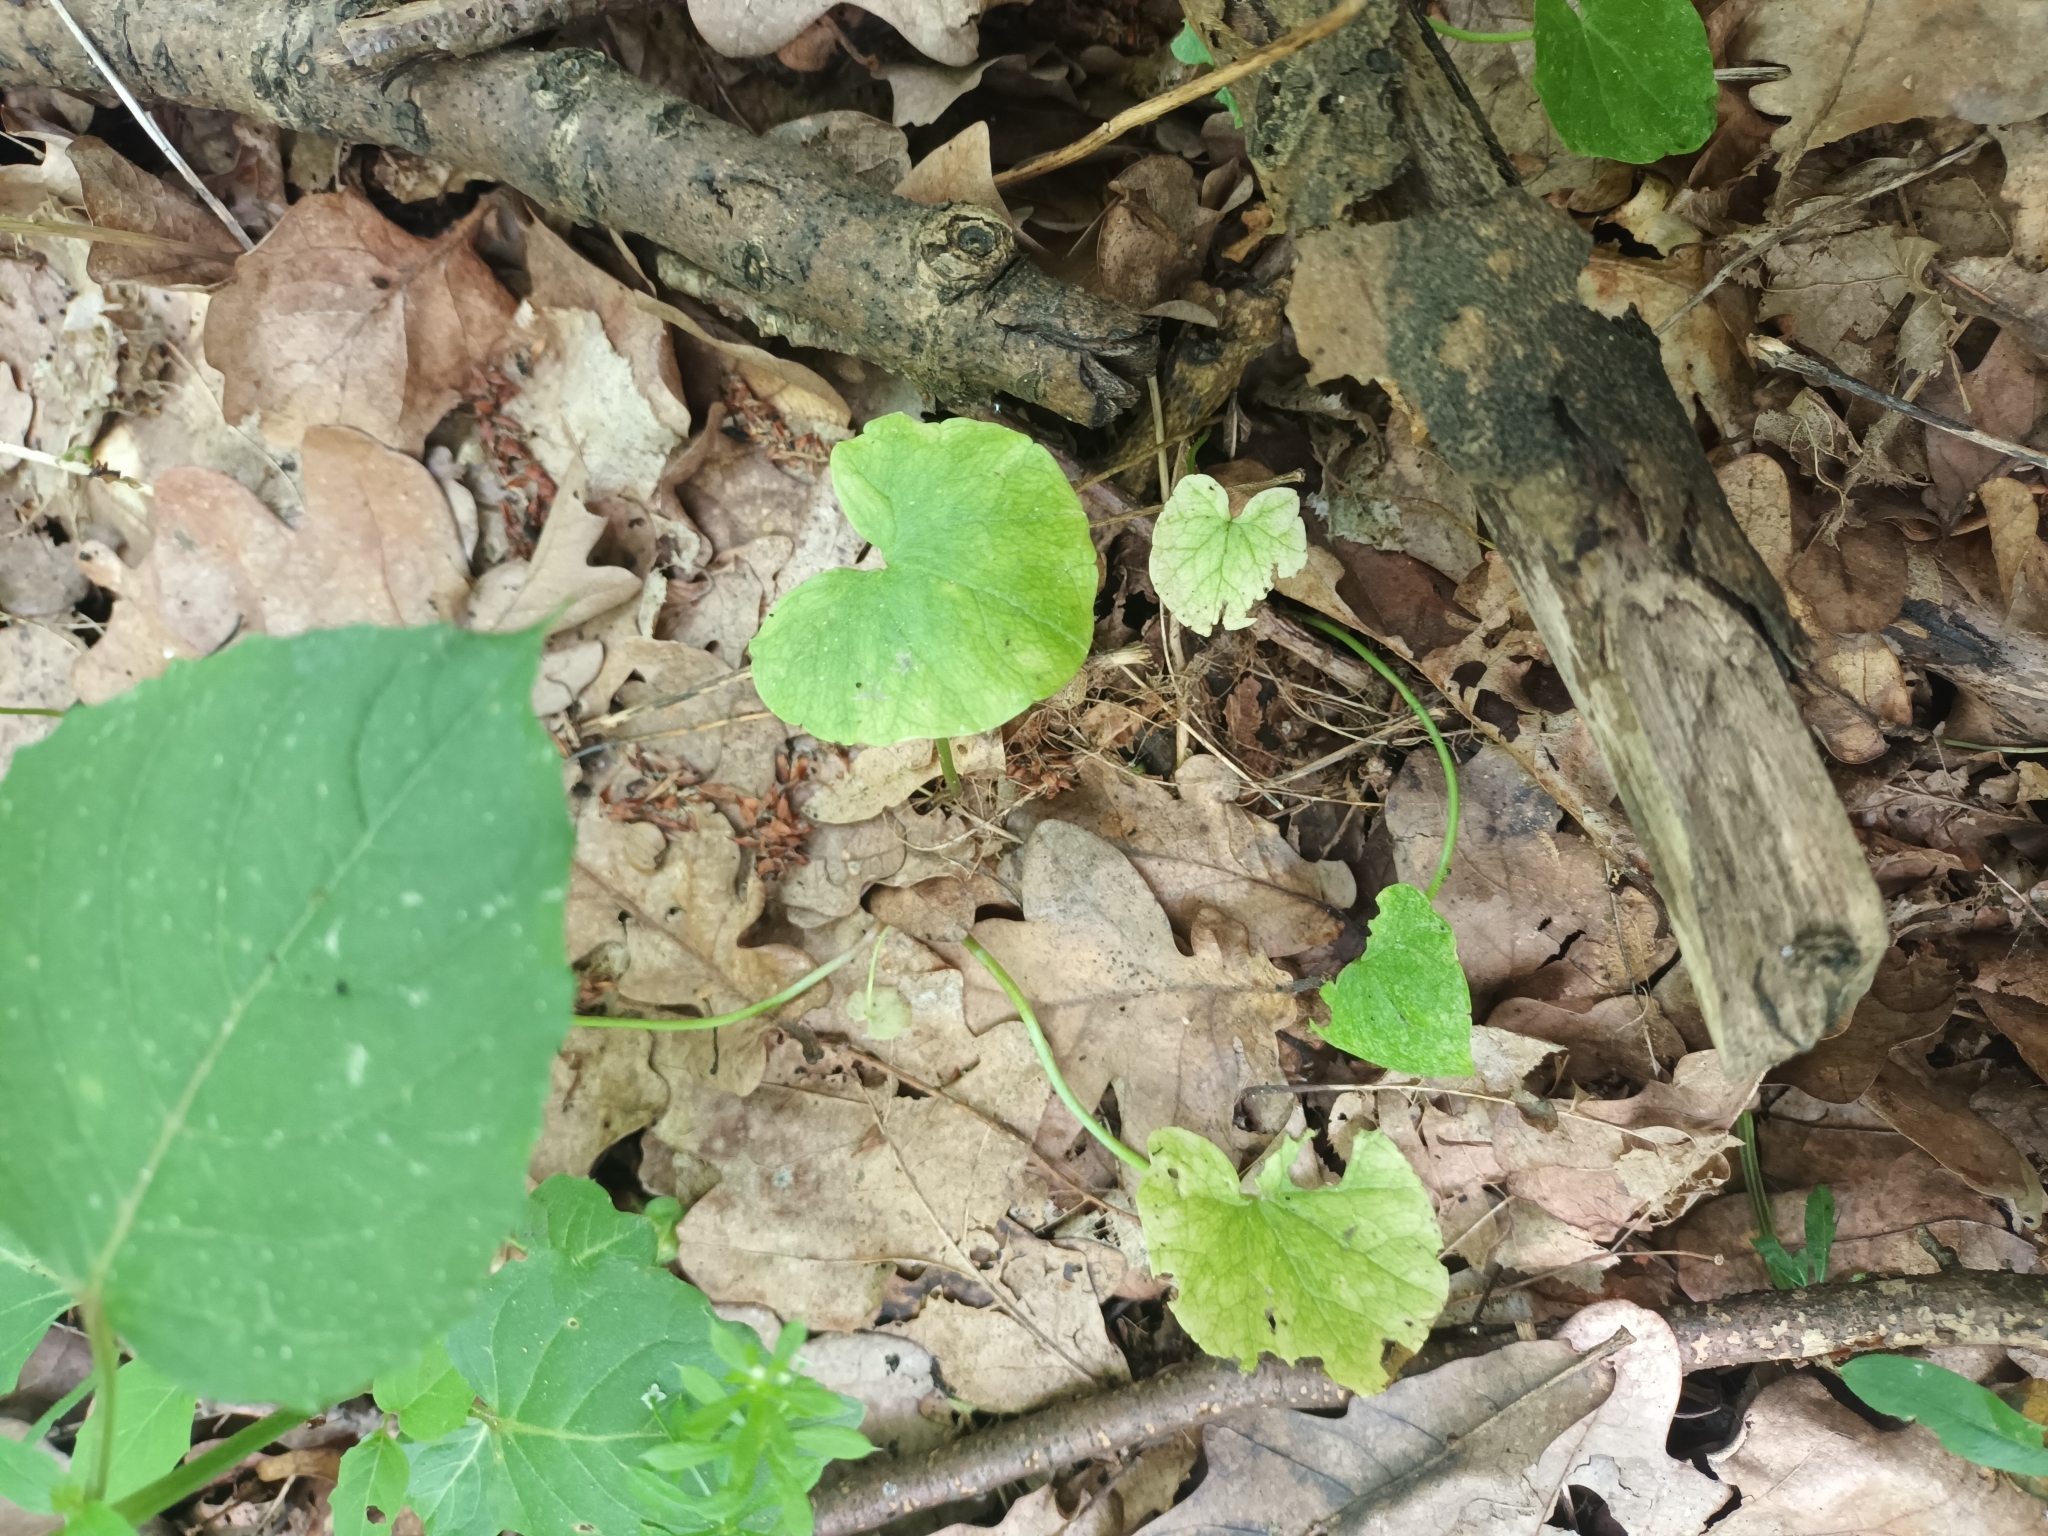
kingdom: Plantae
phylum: Tracheophyta
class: Magnoliopsida
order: Ranunculales
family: Ranunculaceae
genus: Ficaria
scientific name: Ficaria verna
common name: Lesser celandine
